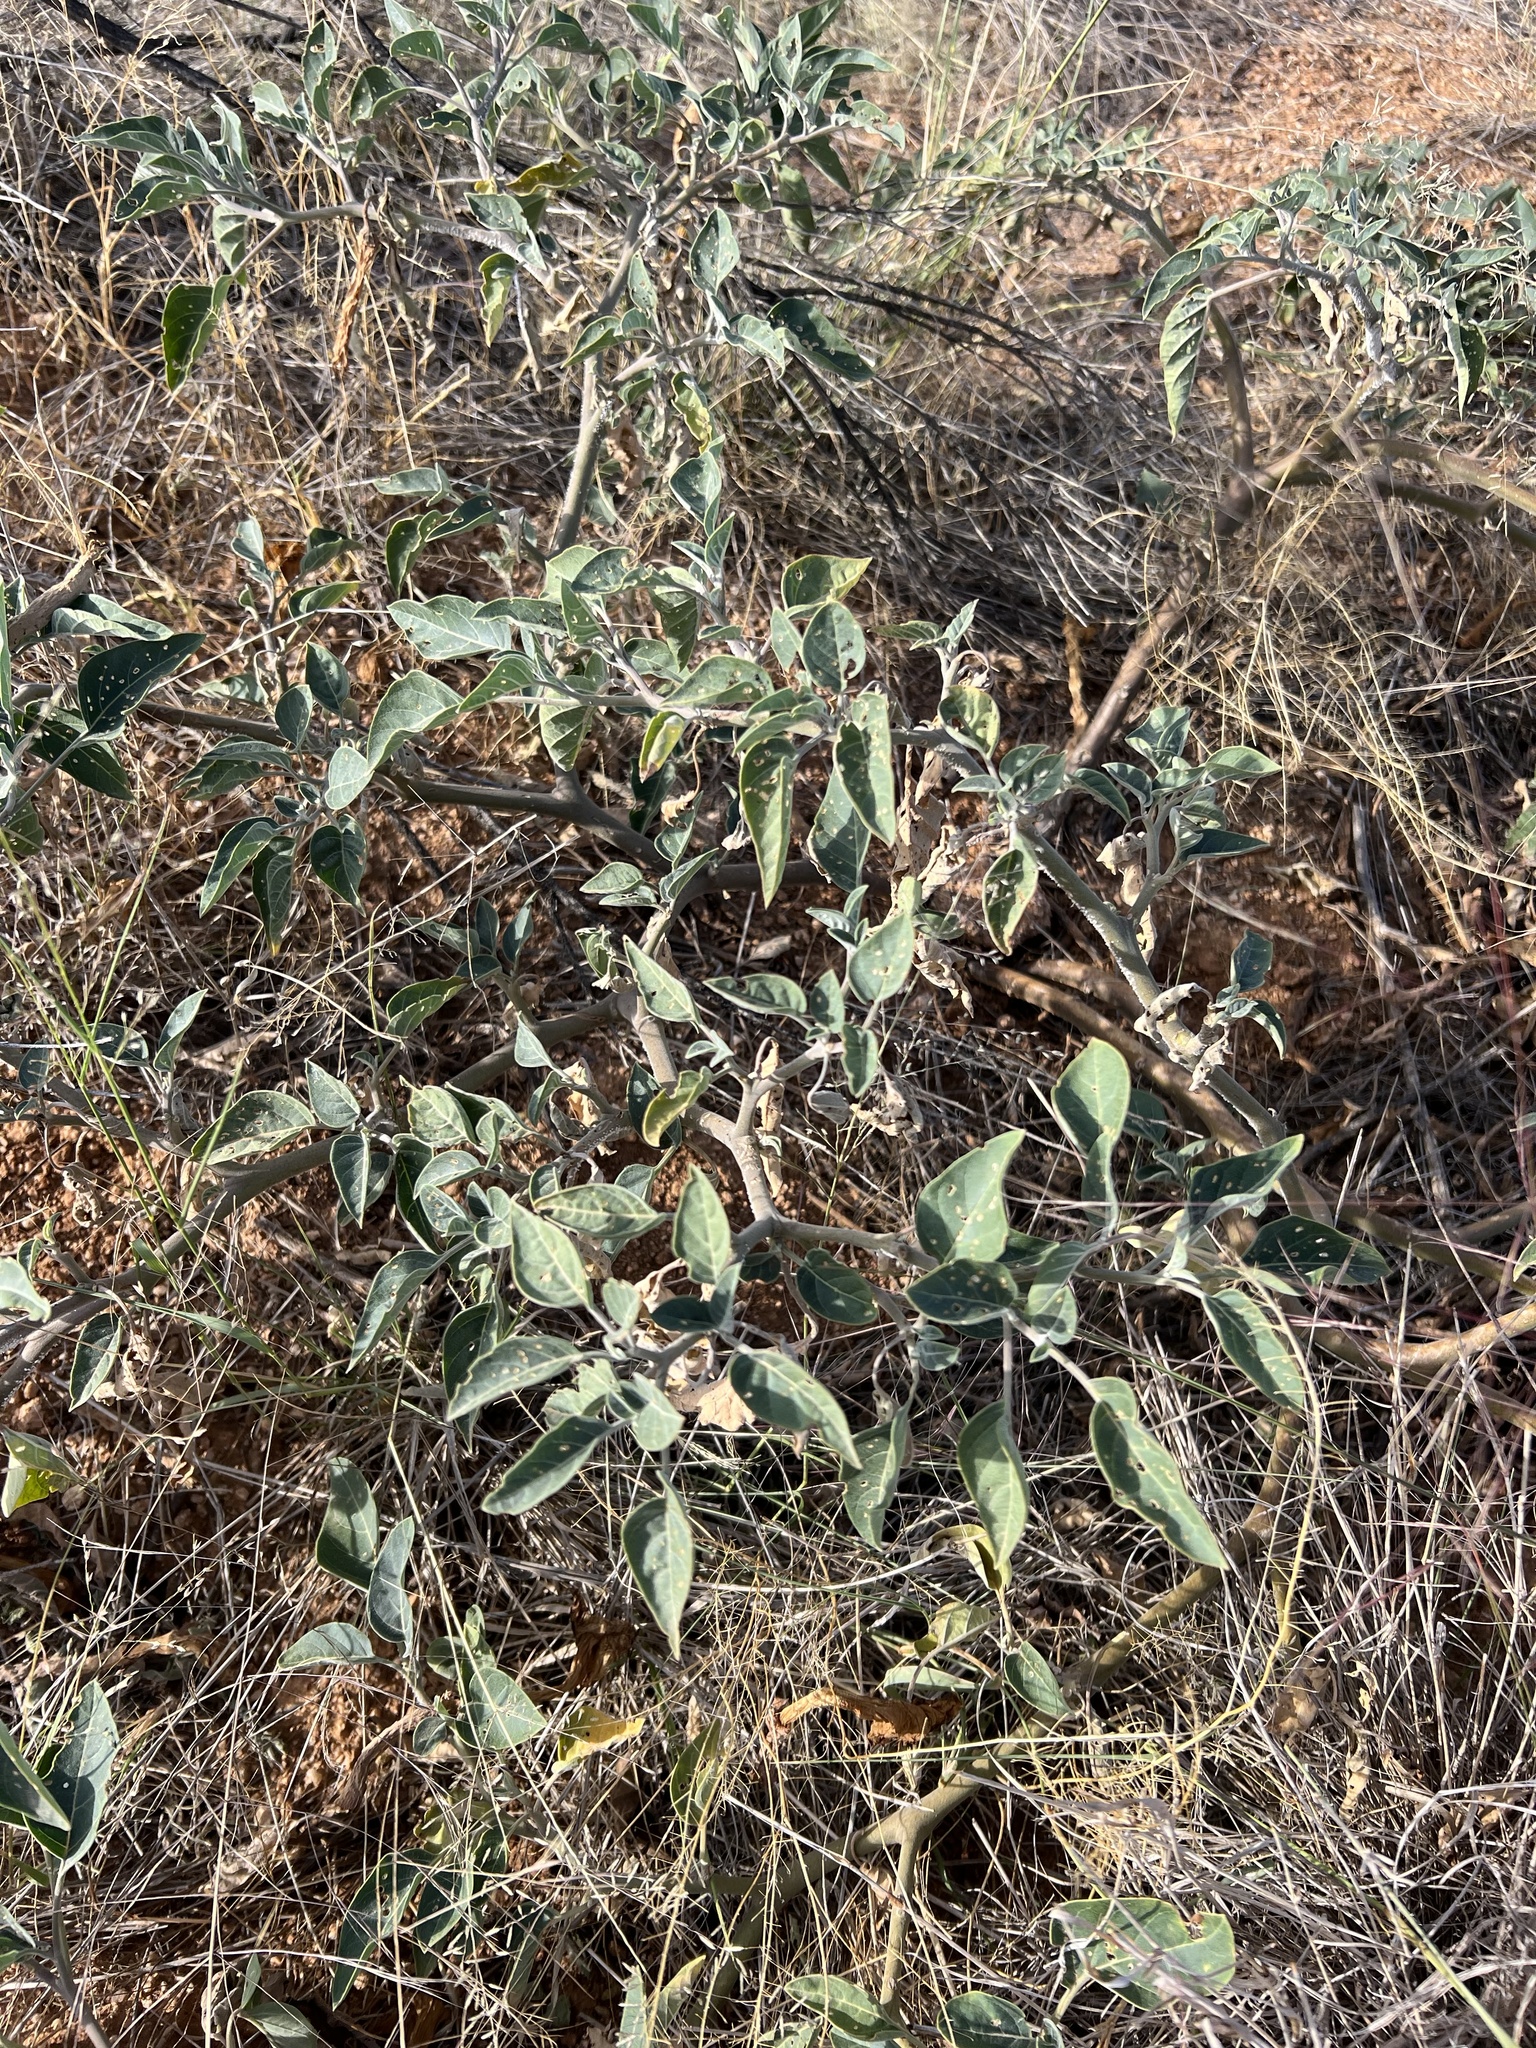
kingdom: Plantae
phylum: Tracheophyta
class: Magnoliopsida
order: Solanales
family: Solanaceae
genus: Datura
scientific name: Datura wrightii
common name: Sacred thorn-apple
